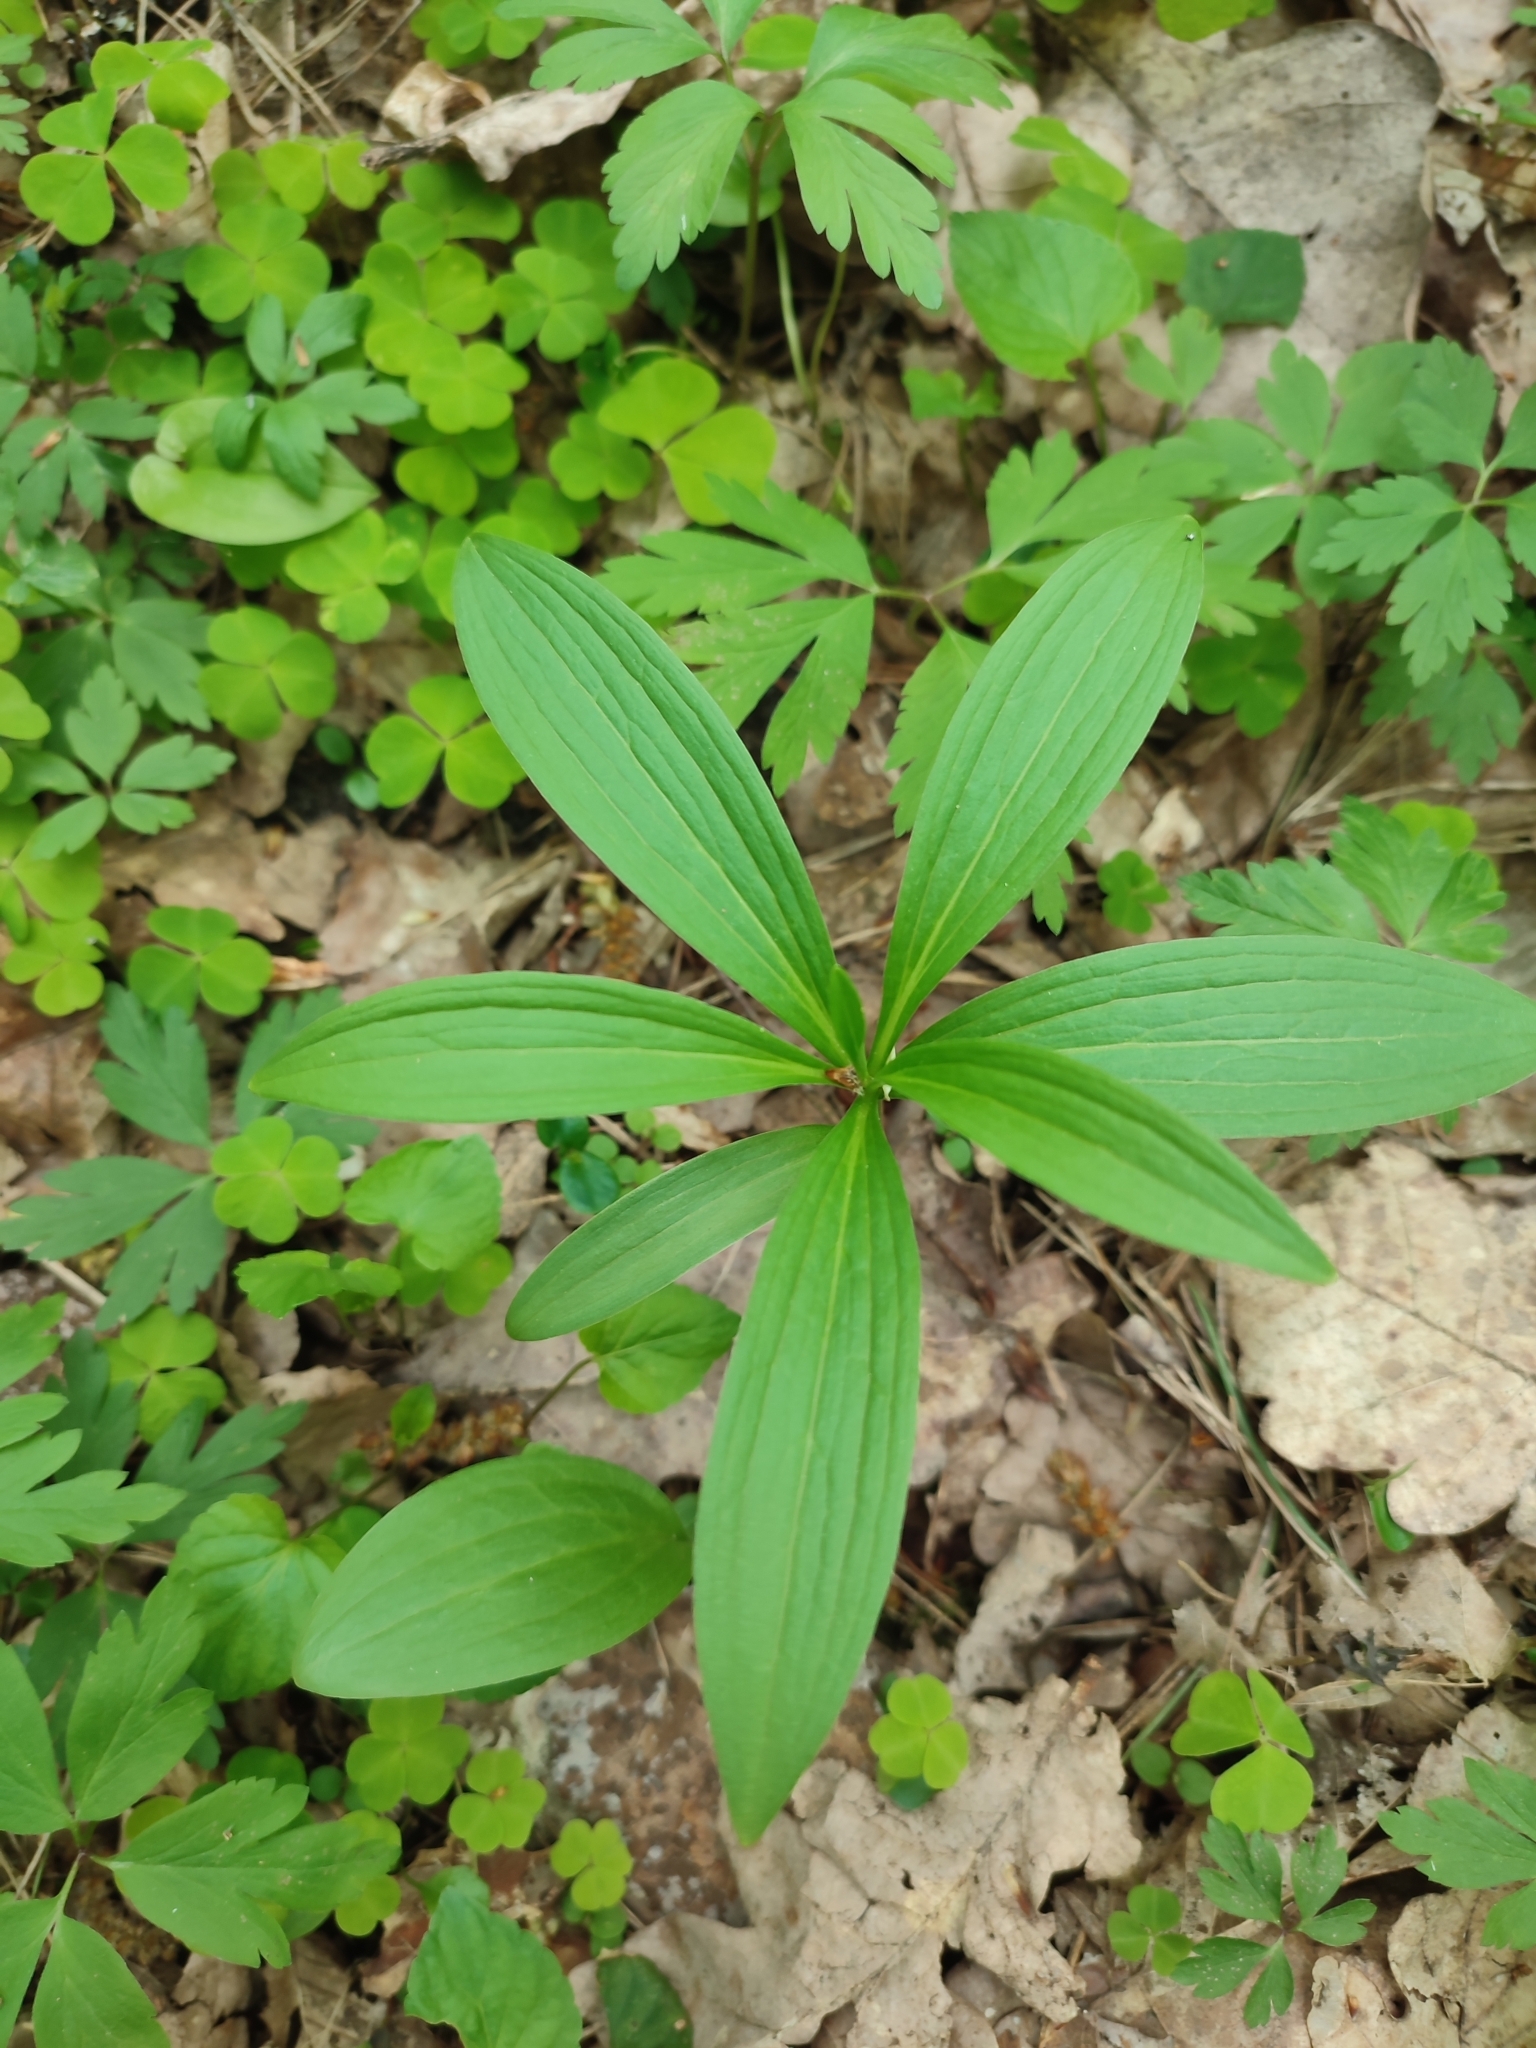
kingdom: Plantae
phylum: Tracheophyta
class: Liliopsida
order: Liliales
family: Liliaceae
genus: Lilium
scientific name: Lilium martagon
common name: Martagon lily
